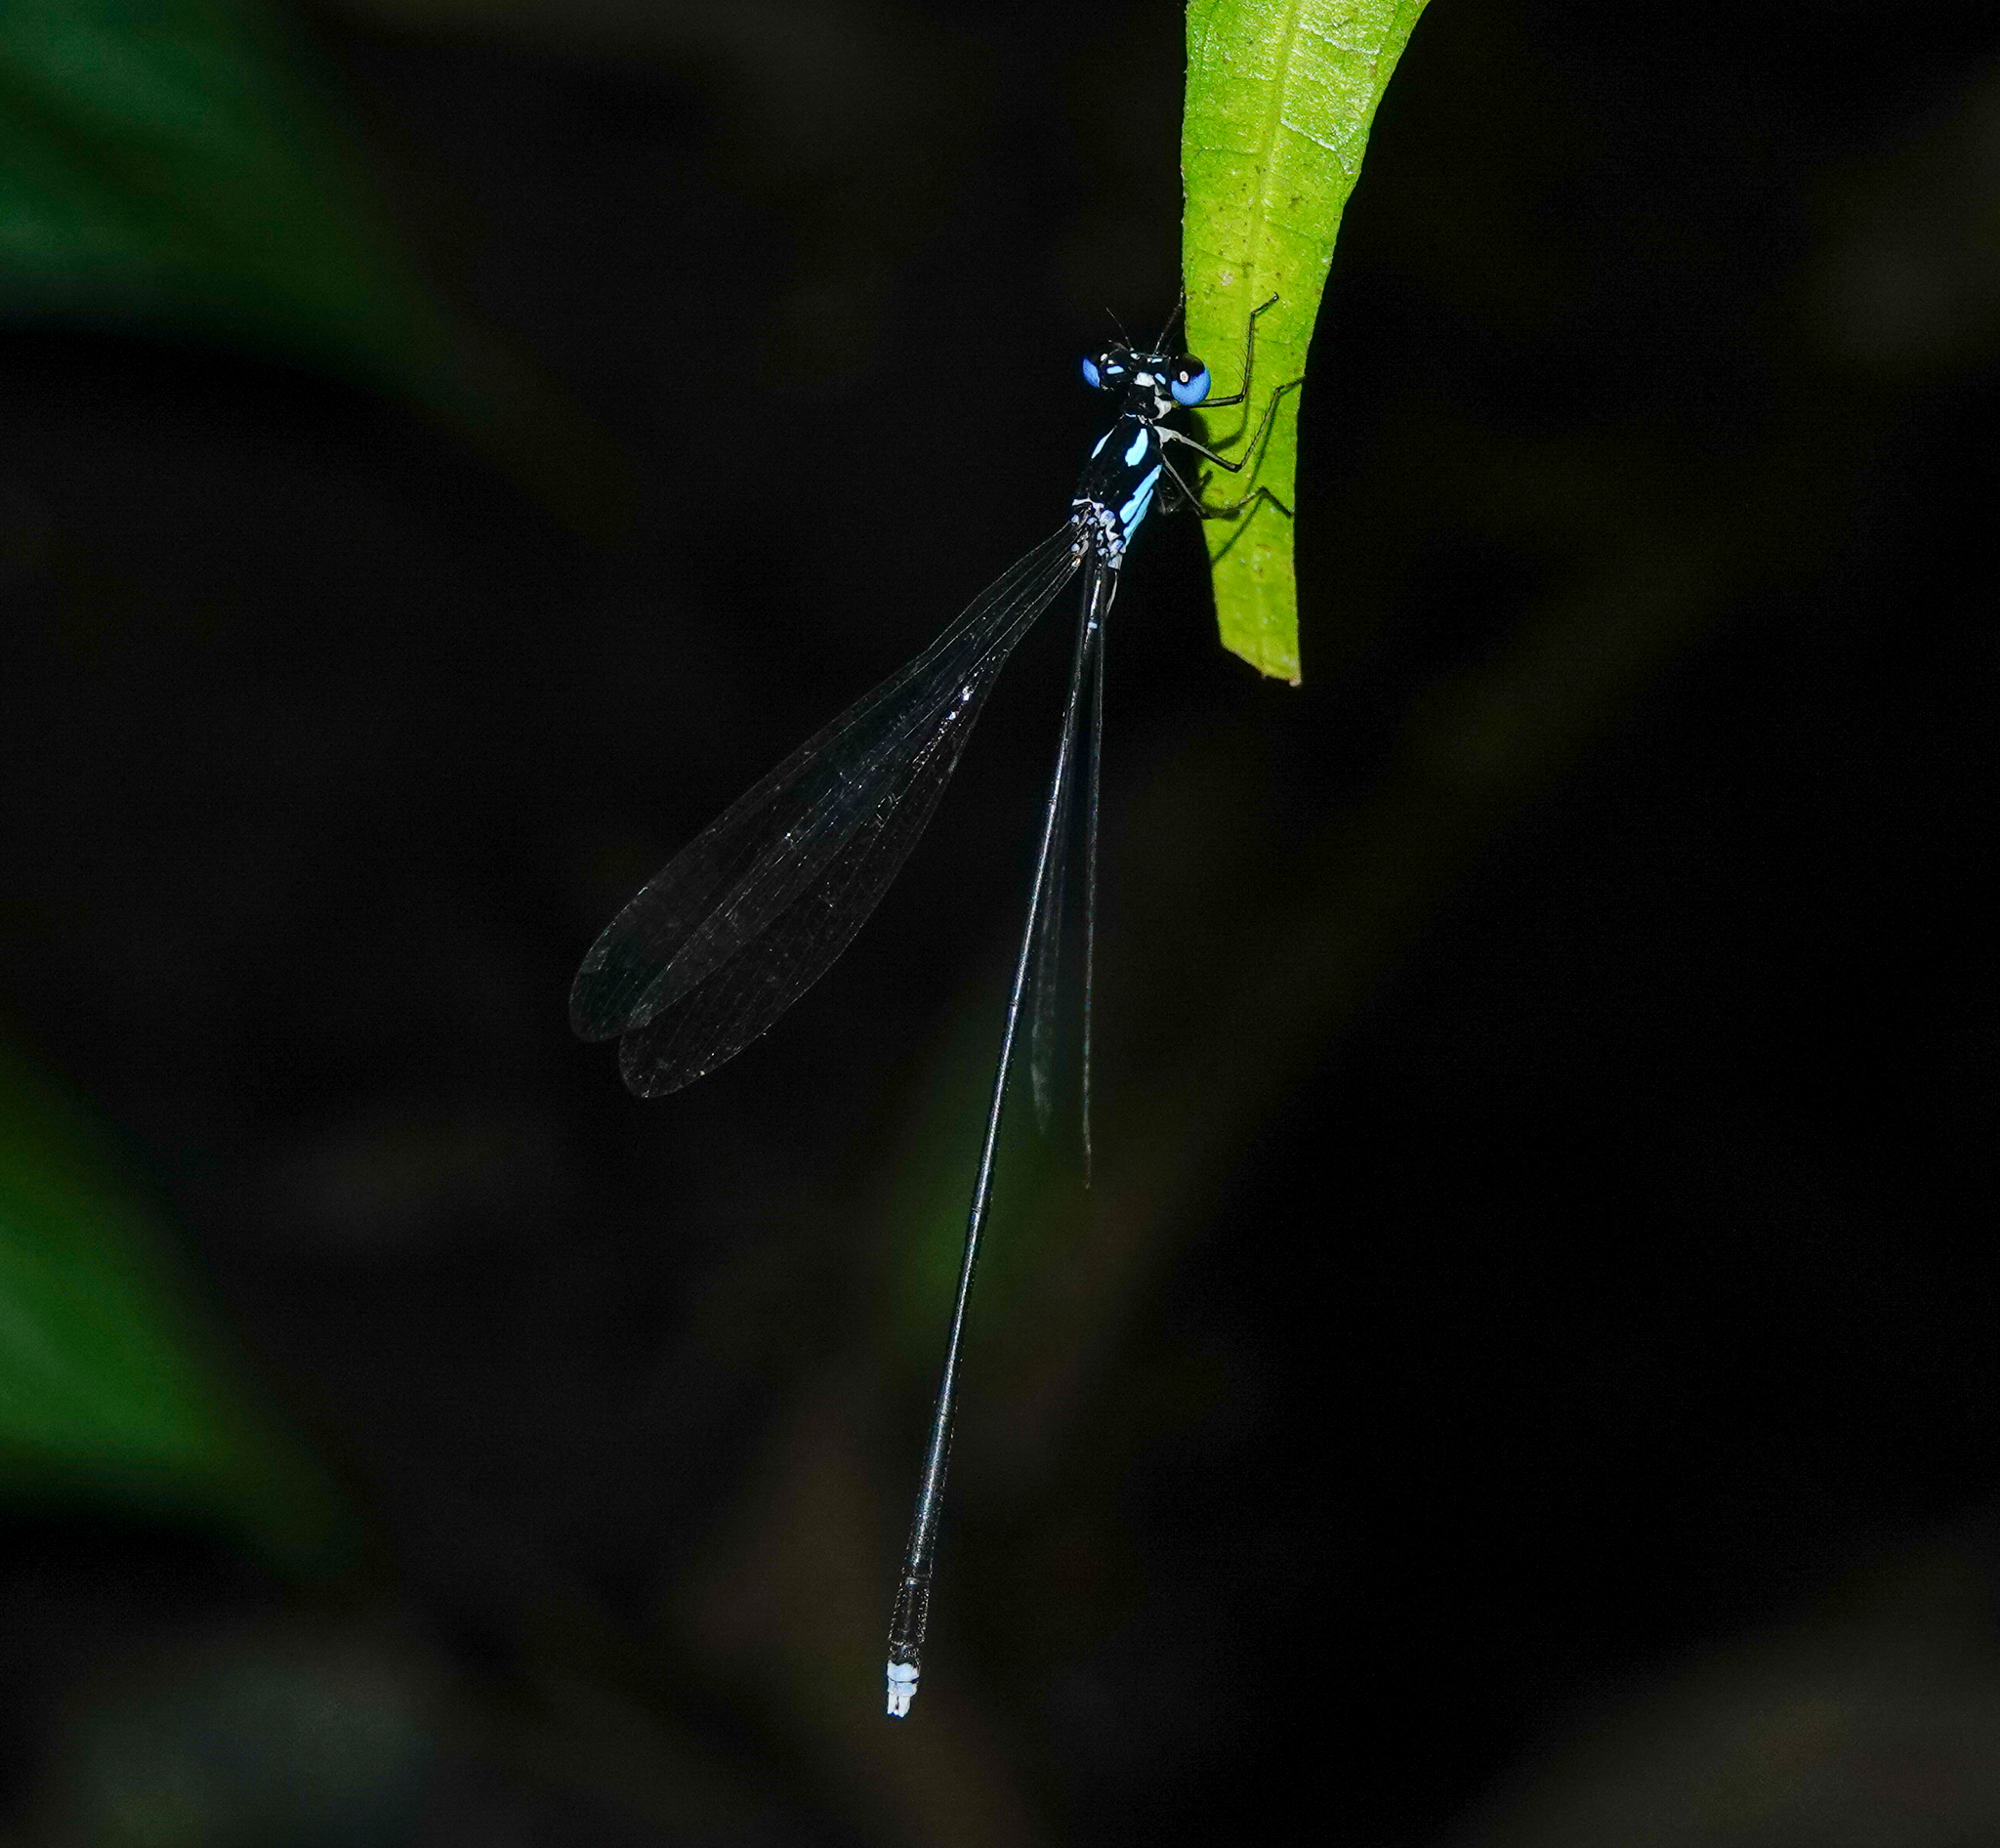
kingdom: Animalia
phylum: Arthropoda
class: Insecta
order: Odonata
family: Platycnemididae
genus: Coeliccia
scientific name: Coeliccia bimaculata
